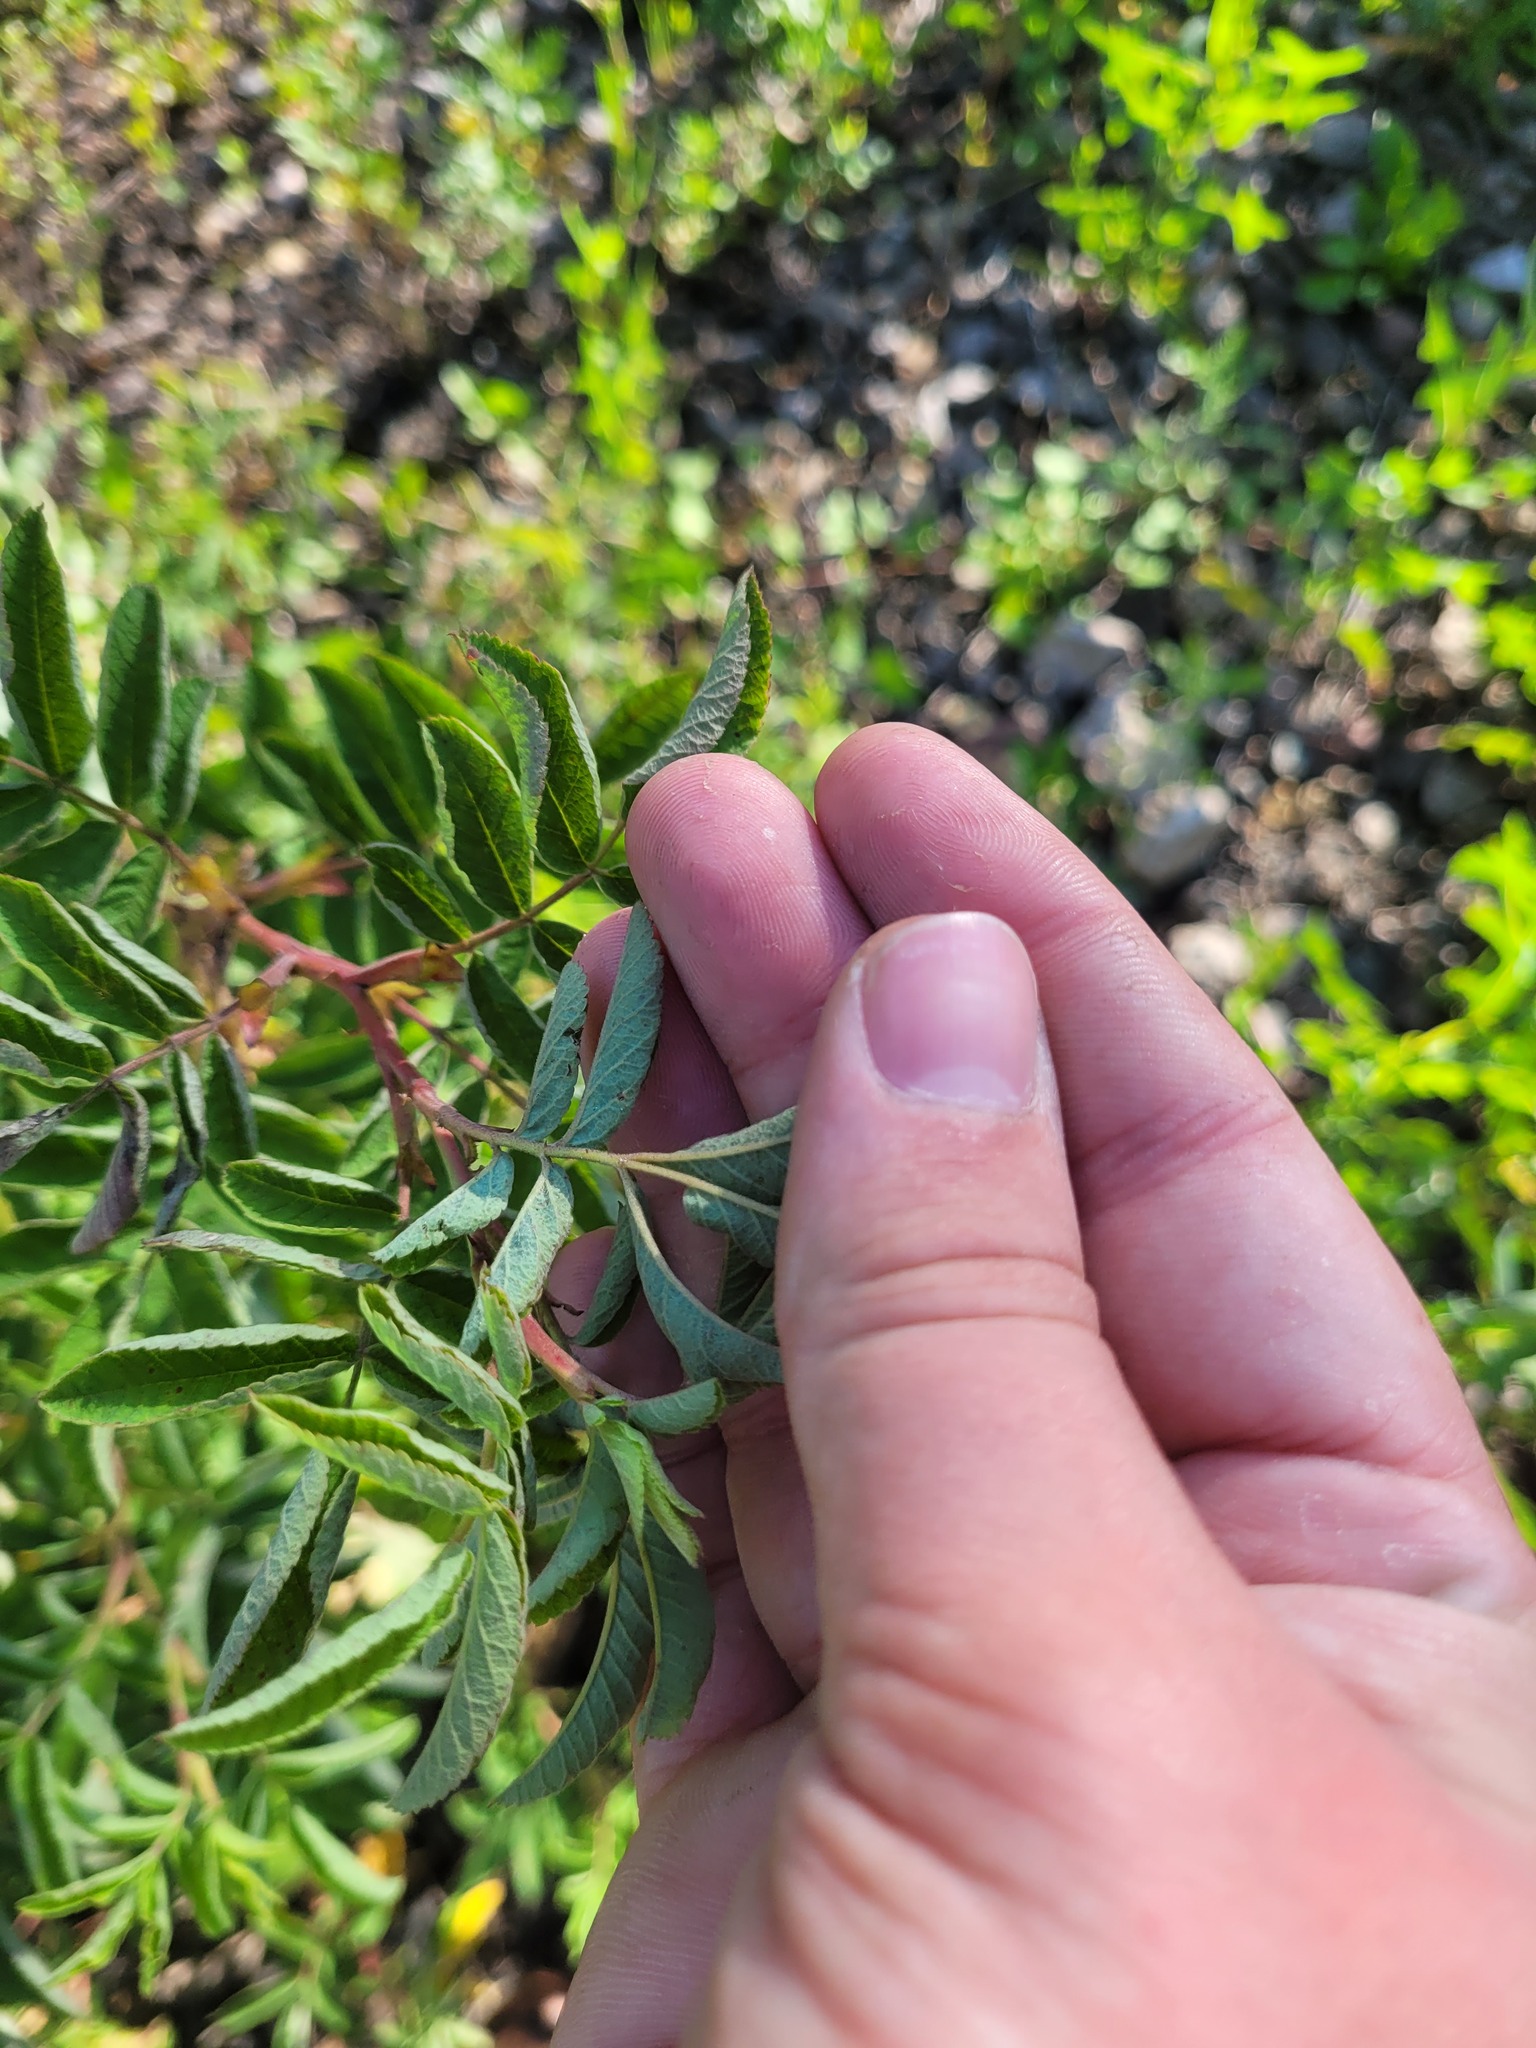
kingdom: Plantae
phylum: Tracheophyta
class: Magnoliopsida
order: Rosales
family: Rosaceae
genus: Rosa
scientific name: Rosa majalis
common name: Cinnamon rose
